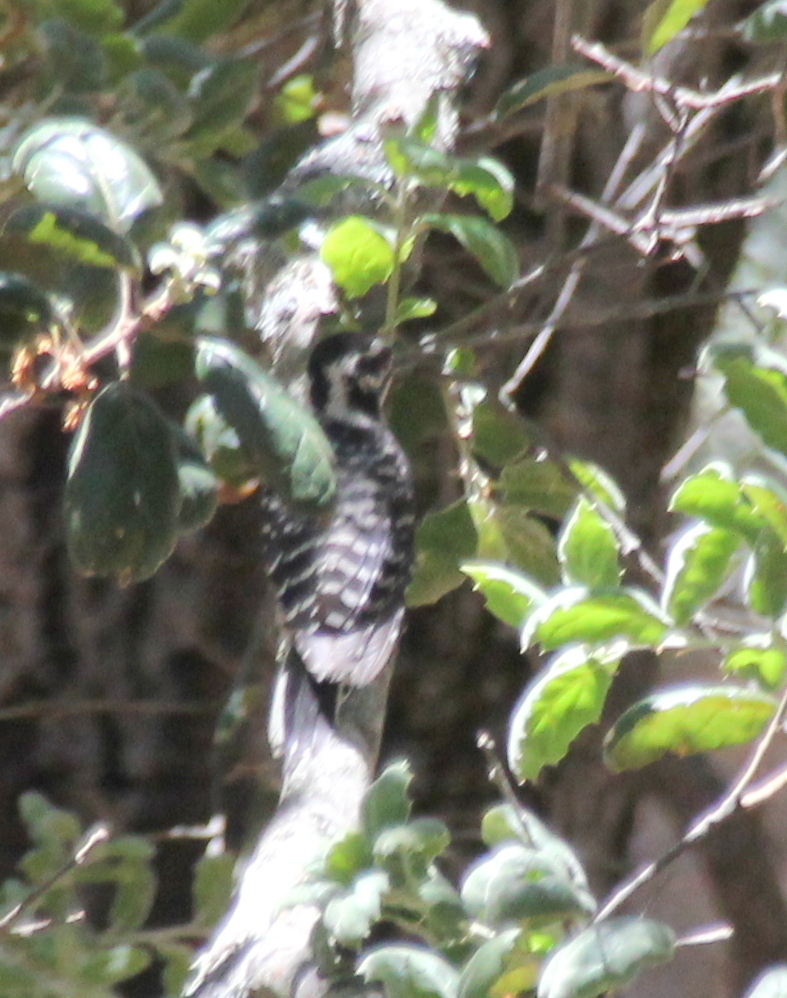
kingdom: Animalia
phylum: Chordata
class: Aves
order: Piciformes
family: Picidae
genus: Dryobates
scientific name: Dryobates nuttallii
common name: Nuttall's woodpecker
